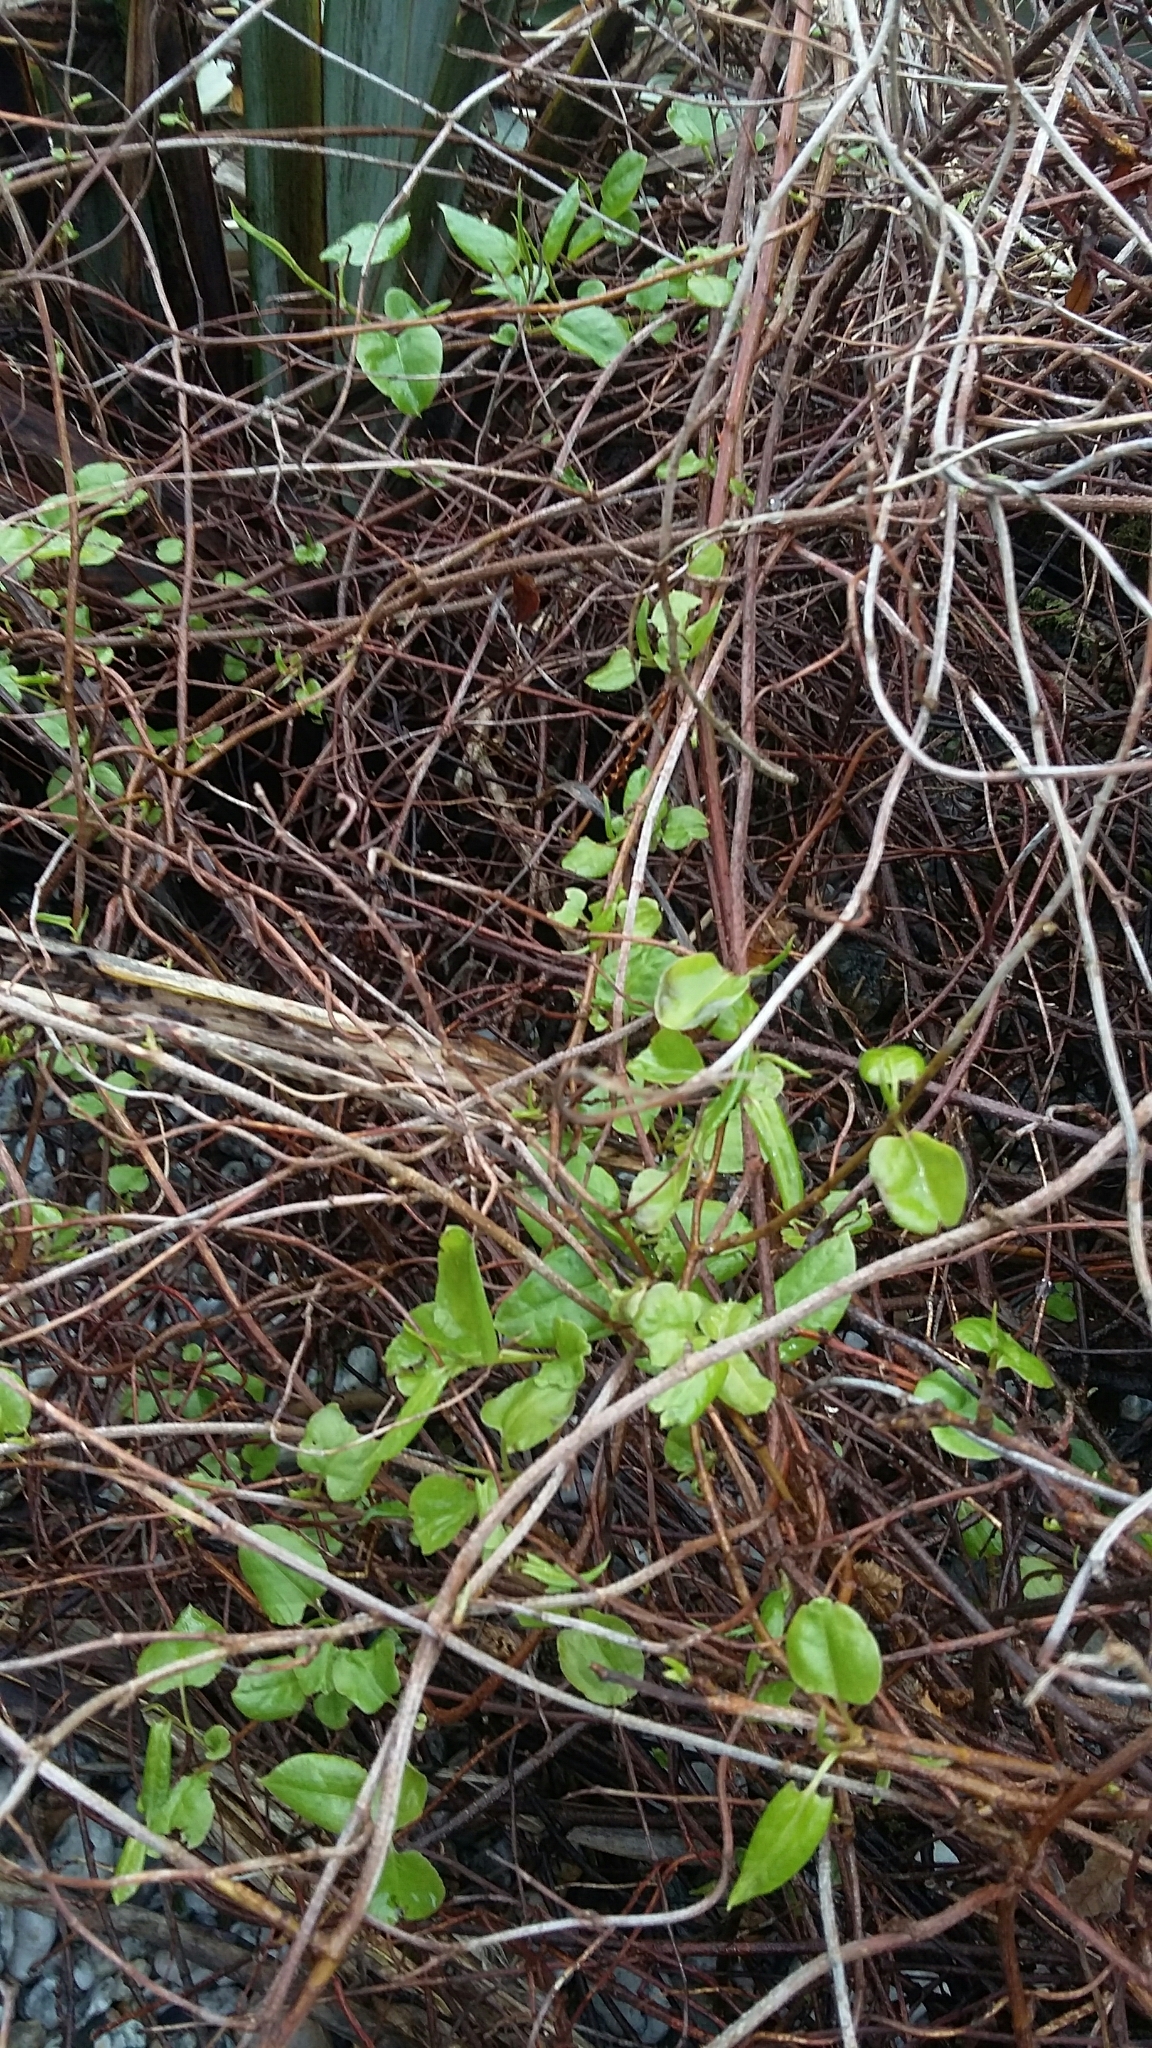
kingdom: Plantae
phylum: Tracheophyta
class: Magnoliopsida
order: Caryophyllales
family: Polygonaceae
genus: Muehlenbeckia
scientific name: Muehlenbeckia australis
